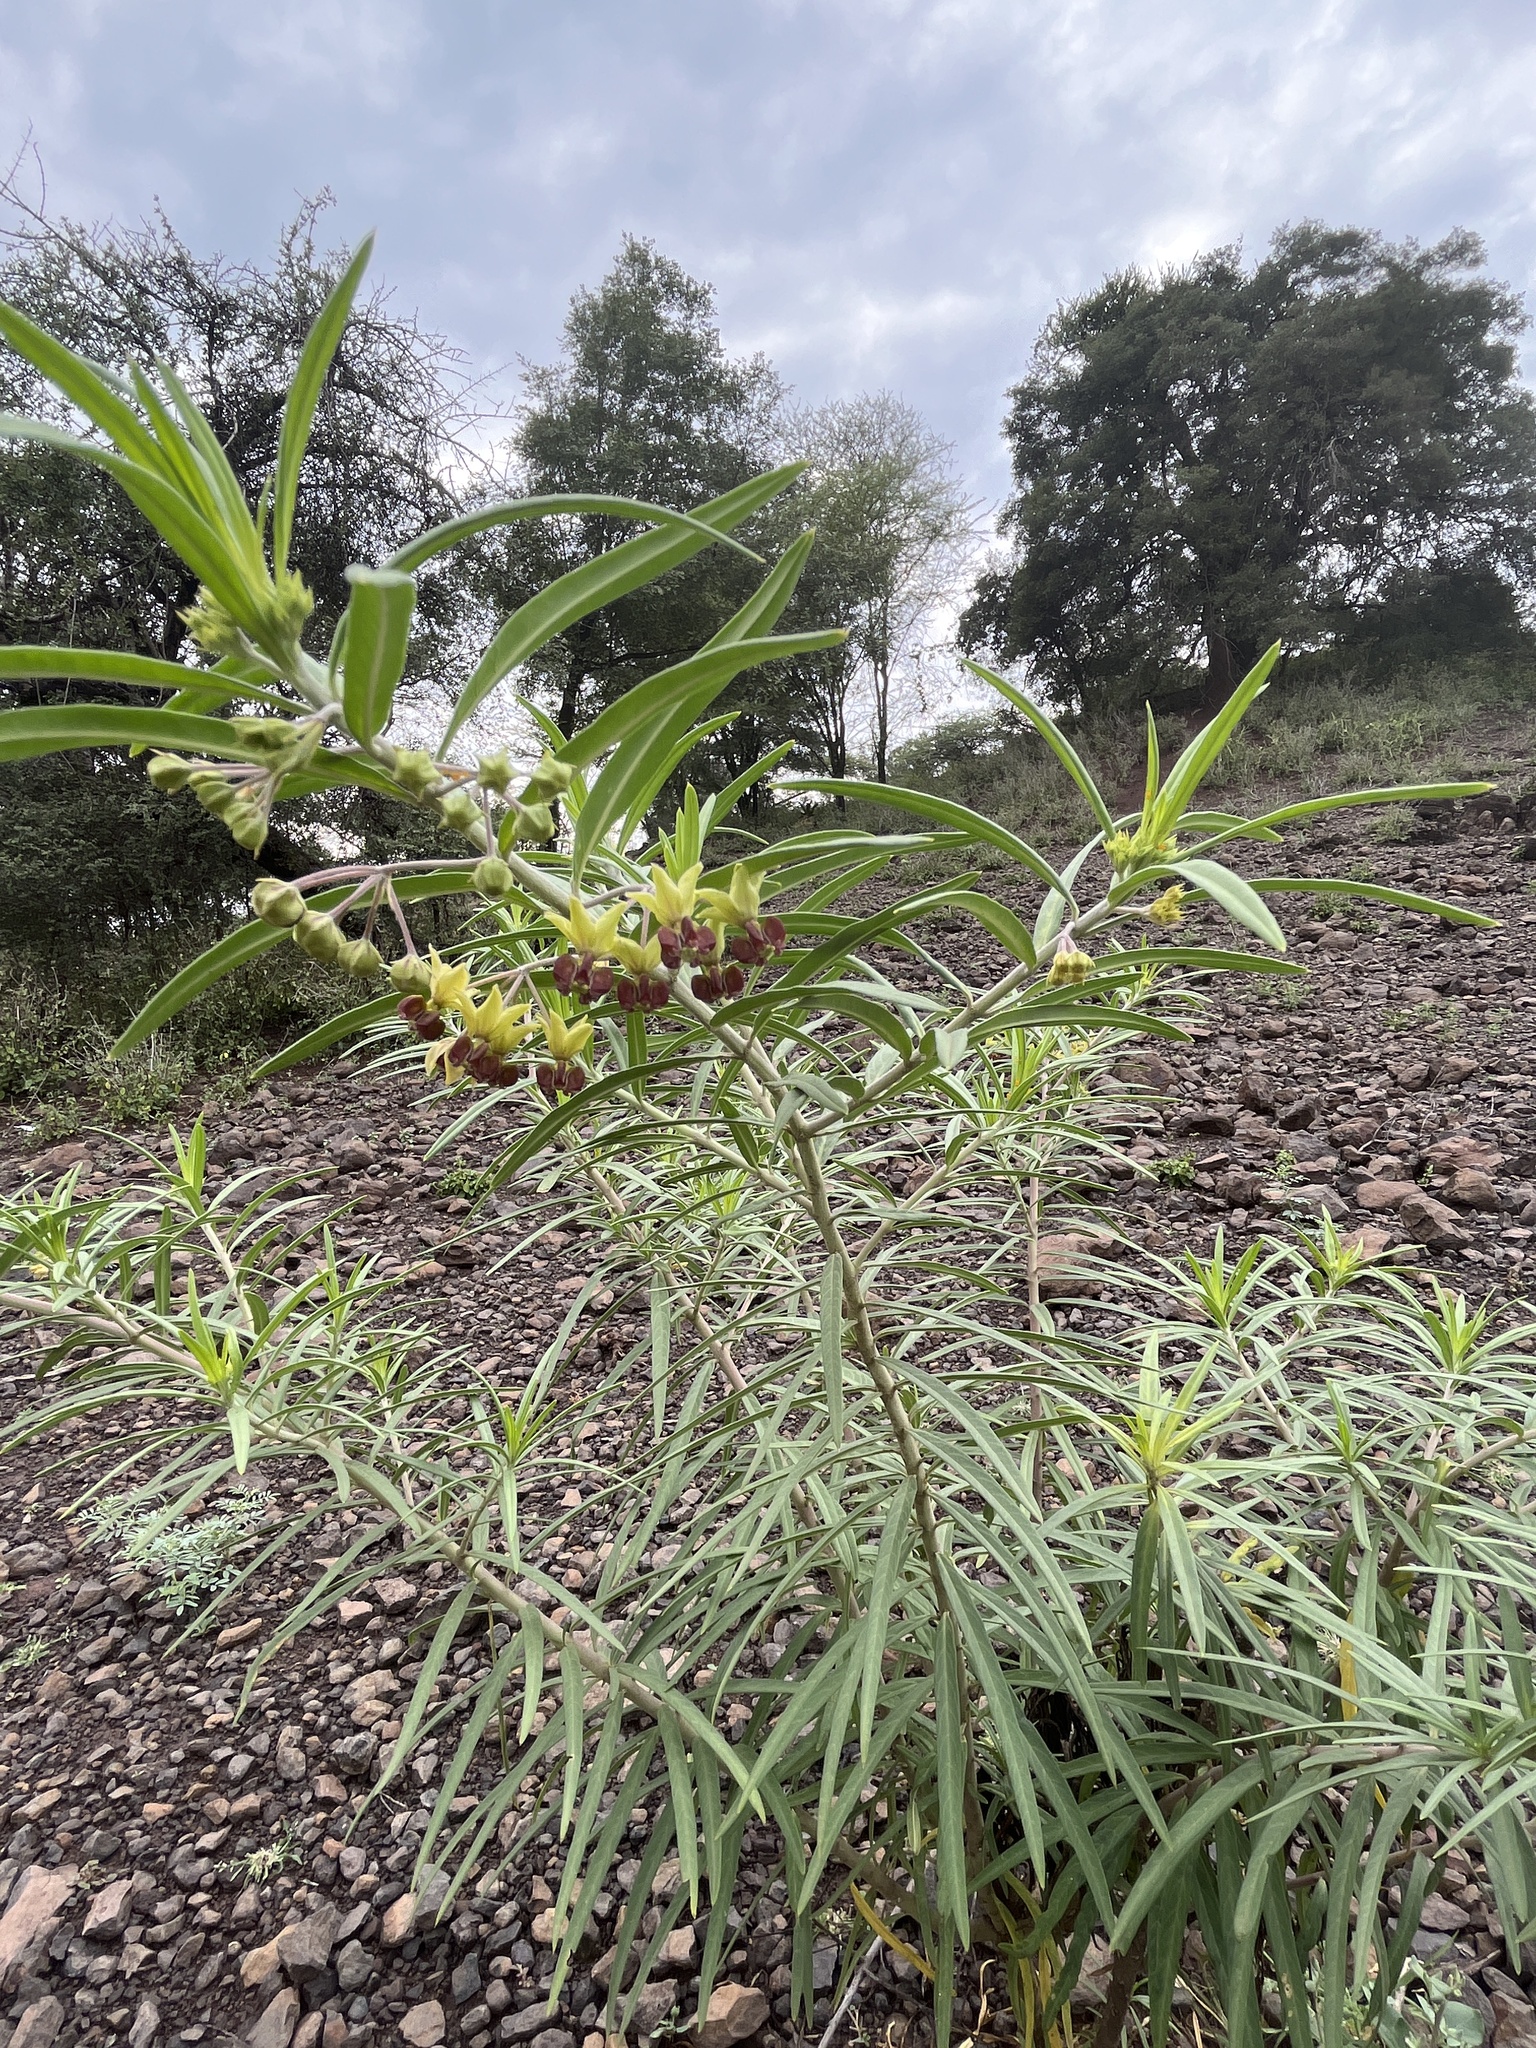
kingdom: Plantae
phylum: Tracheophyta
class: Magnoliopsida
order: Gentianales
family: Apocynaceae
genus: Gomphocarpus
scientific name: Gomphocarpus fruticosus
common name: Milkweed
